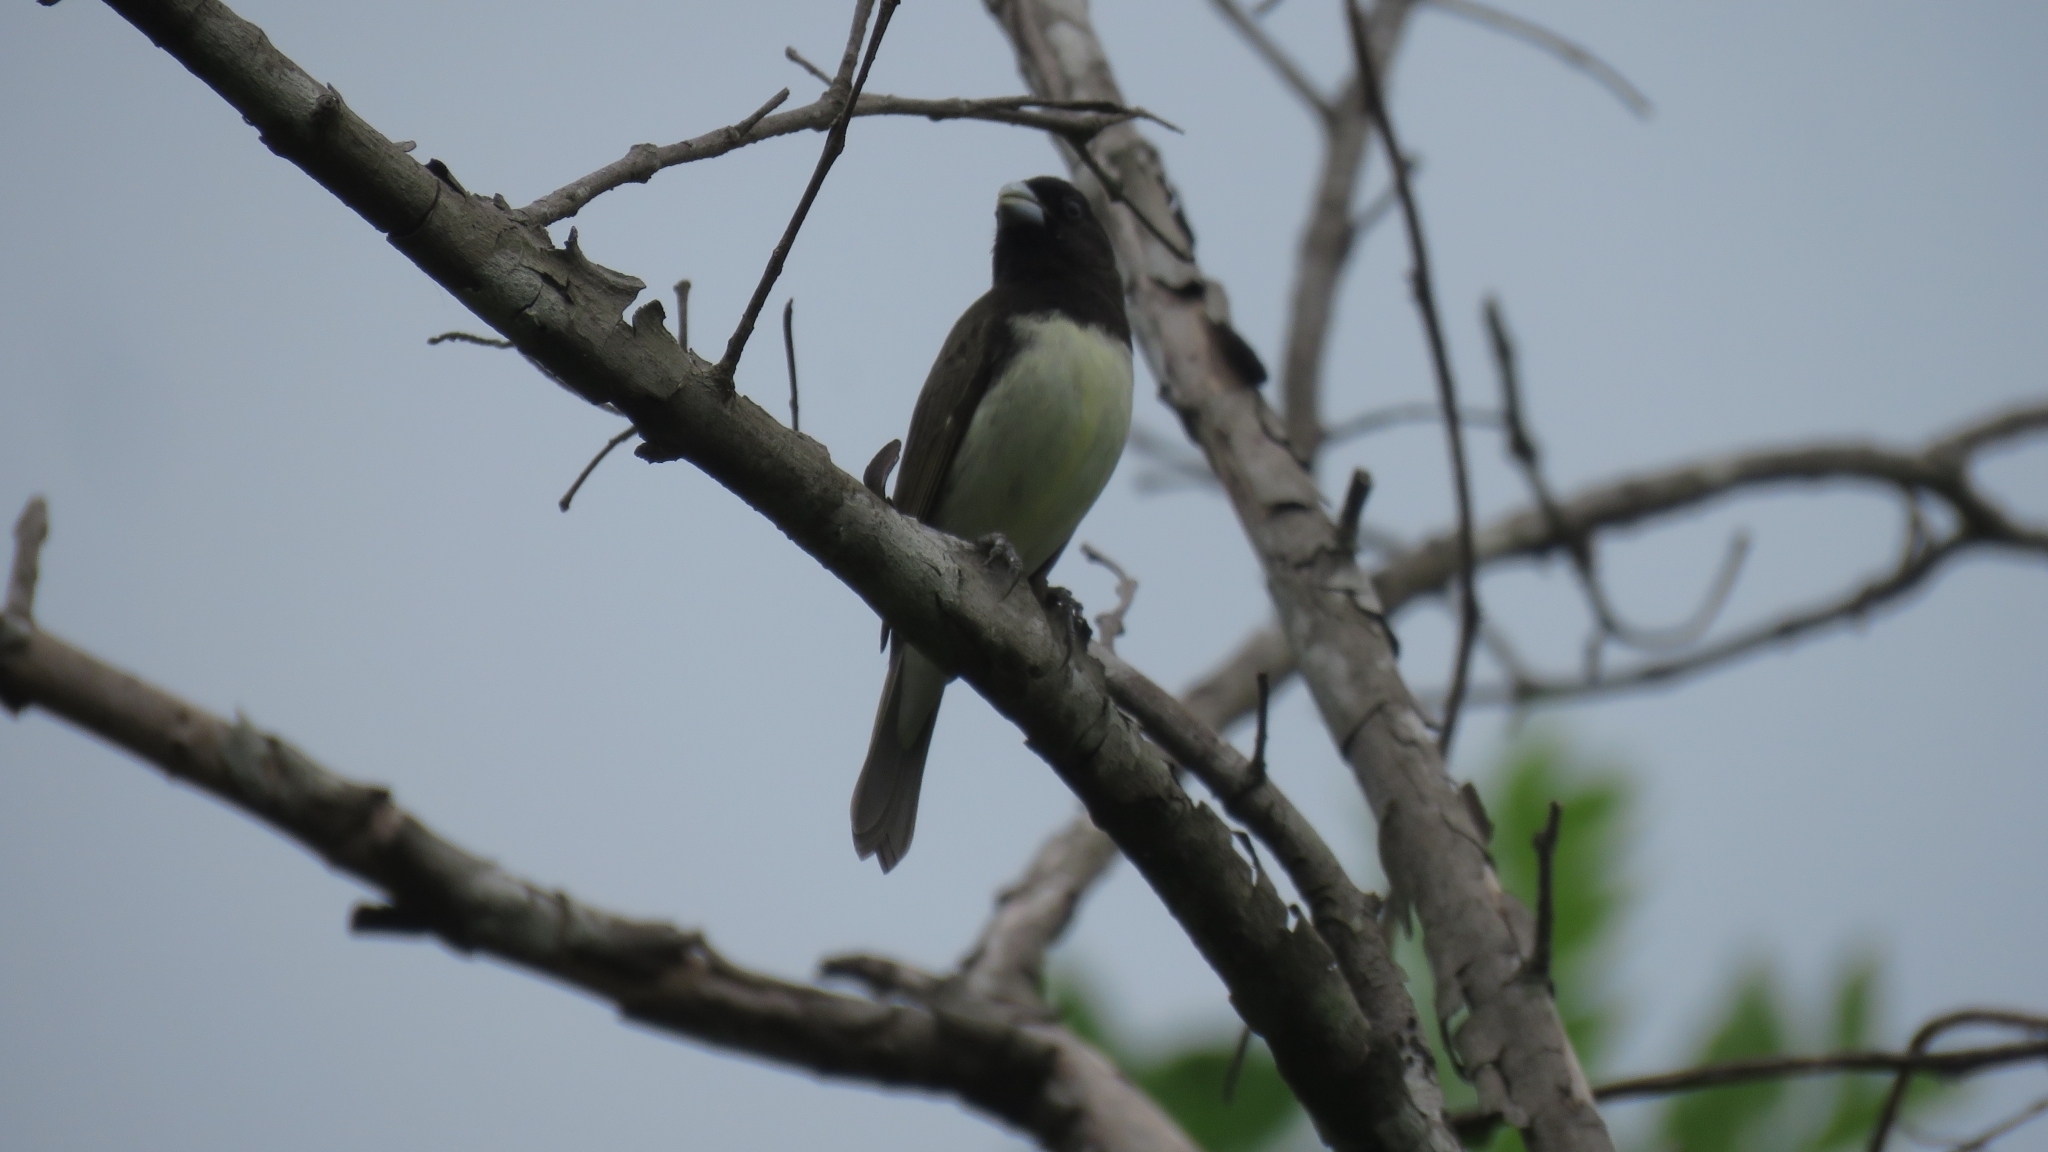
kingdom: Animalia
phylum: Chordata
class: Aves
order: Passeriformes
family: Thraupidae
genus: Sporophila
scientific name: Sporophila nigricollis
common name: Yellow-bellied seedeater
